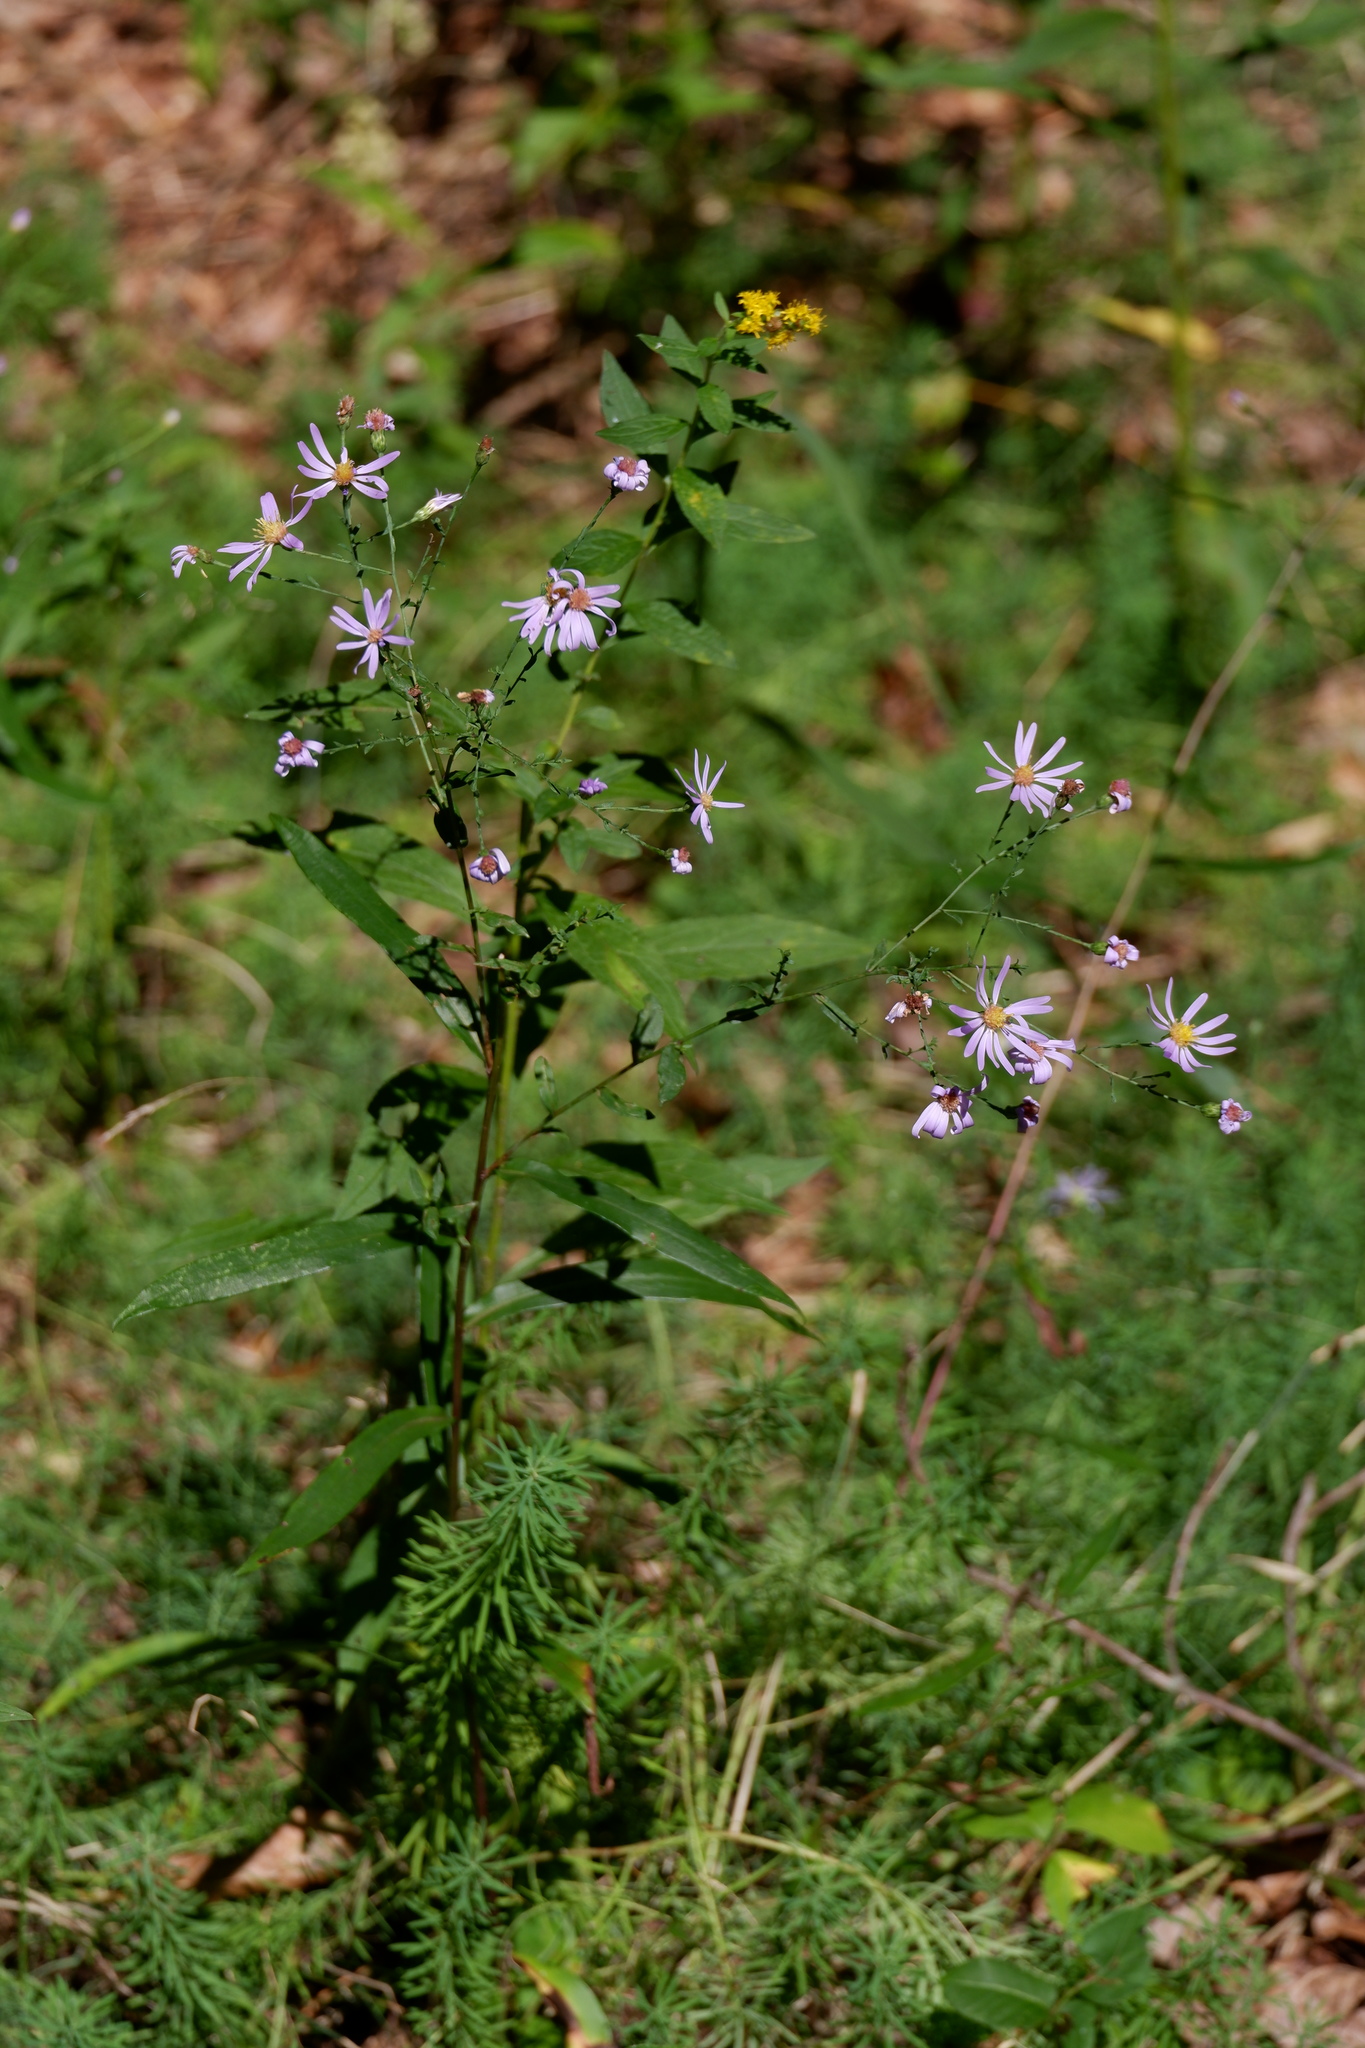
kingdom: Plantae
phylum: Tracheophyta
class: Magnoliopsida
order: Asterales
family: Asteraceae
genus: Symphyotrichum
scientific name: Symphyotrichum laeve
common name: Glaucous aster
